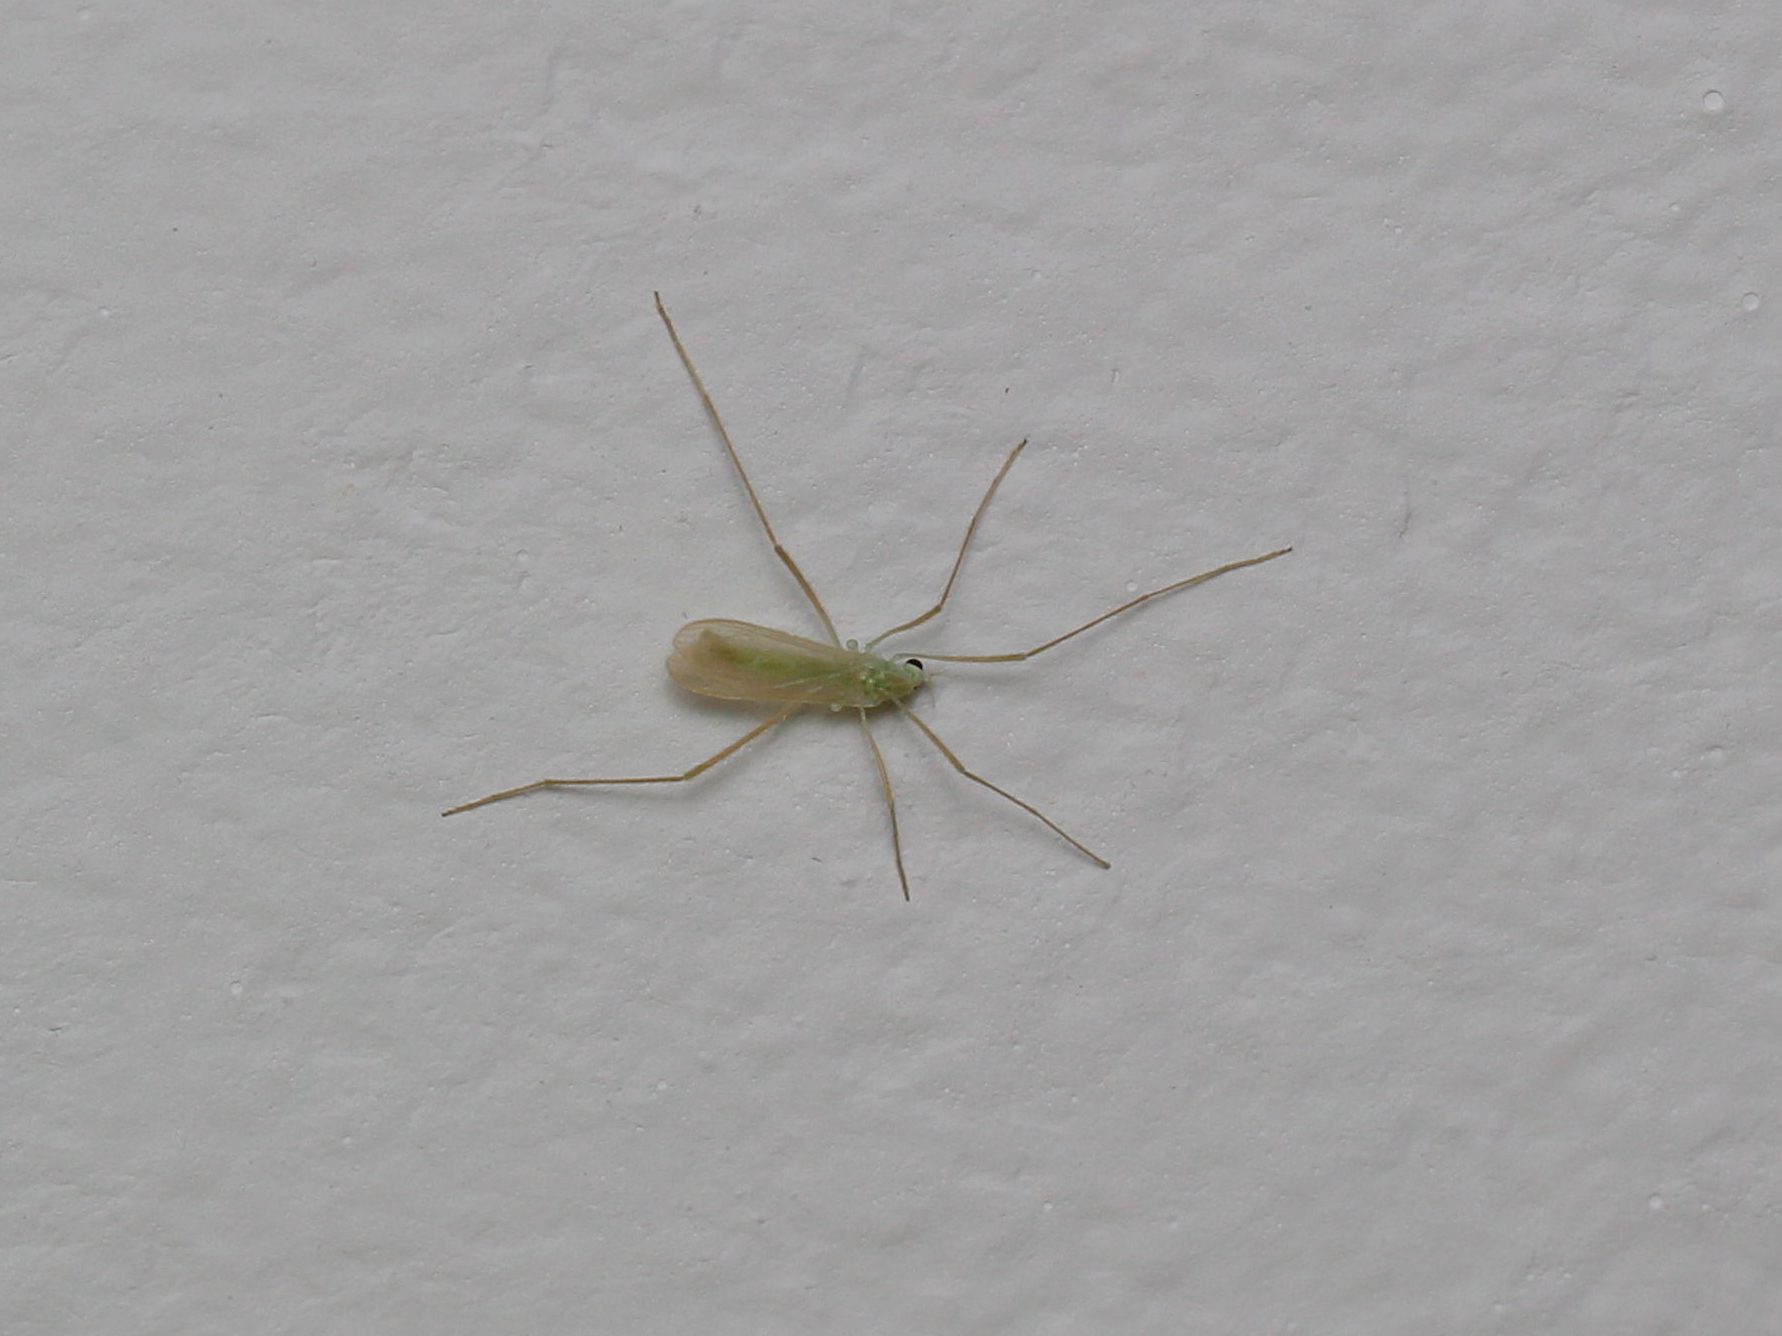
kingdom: Animalia
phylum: Arthropoda
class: Insecta
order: Diptera
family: Limoniidae
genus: Erioptera
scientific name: Erioptera
